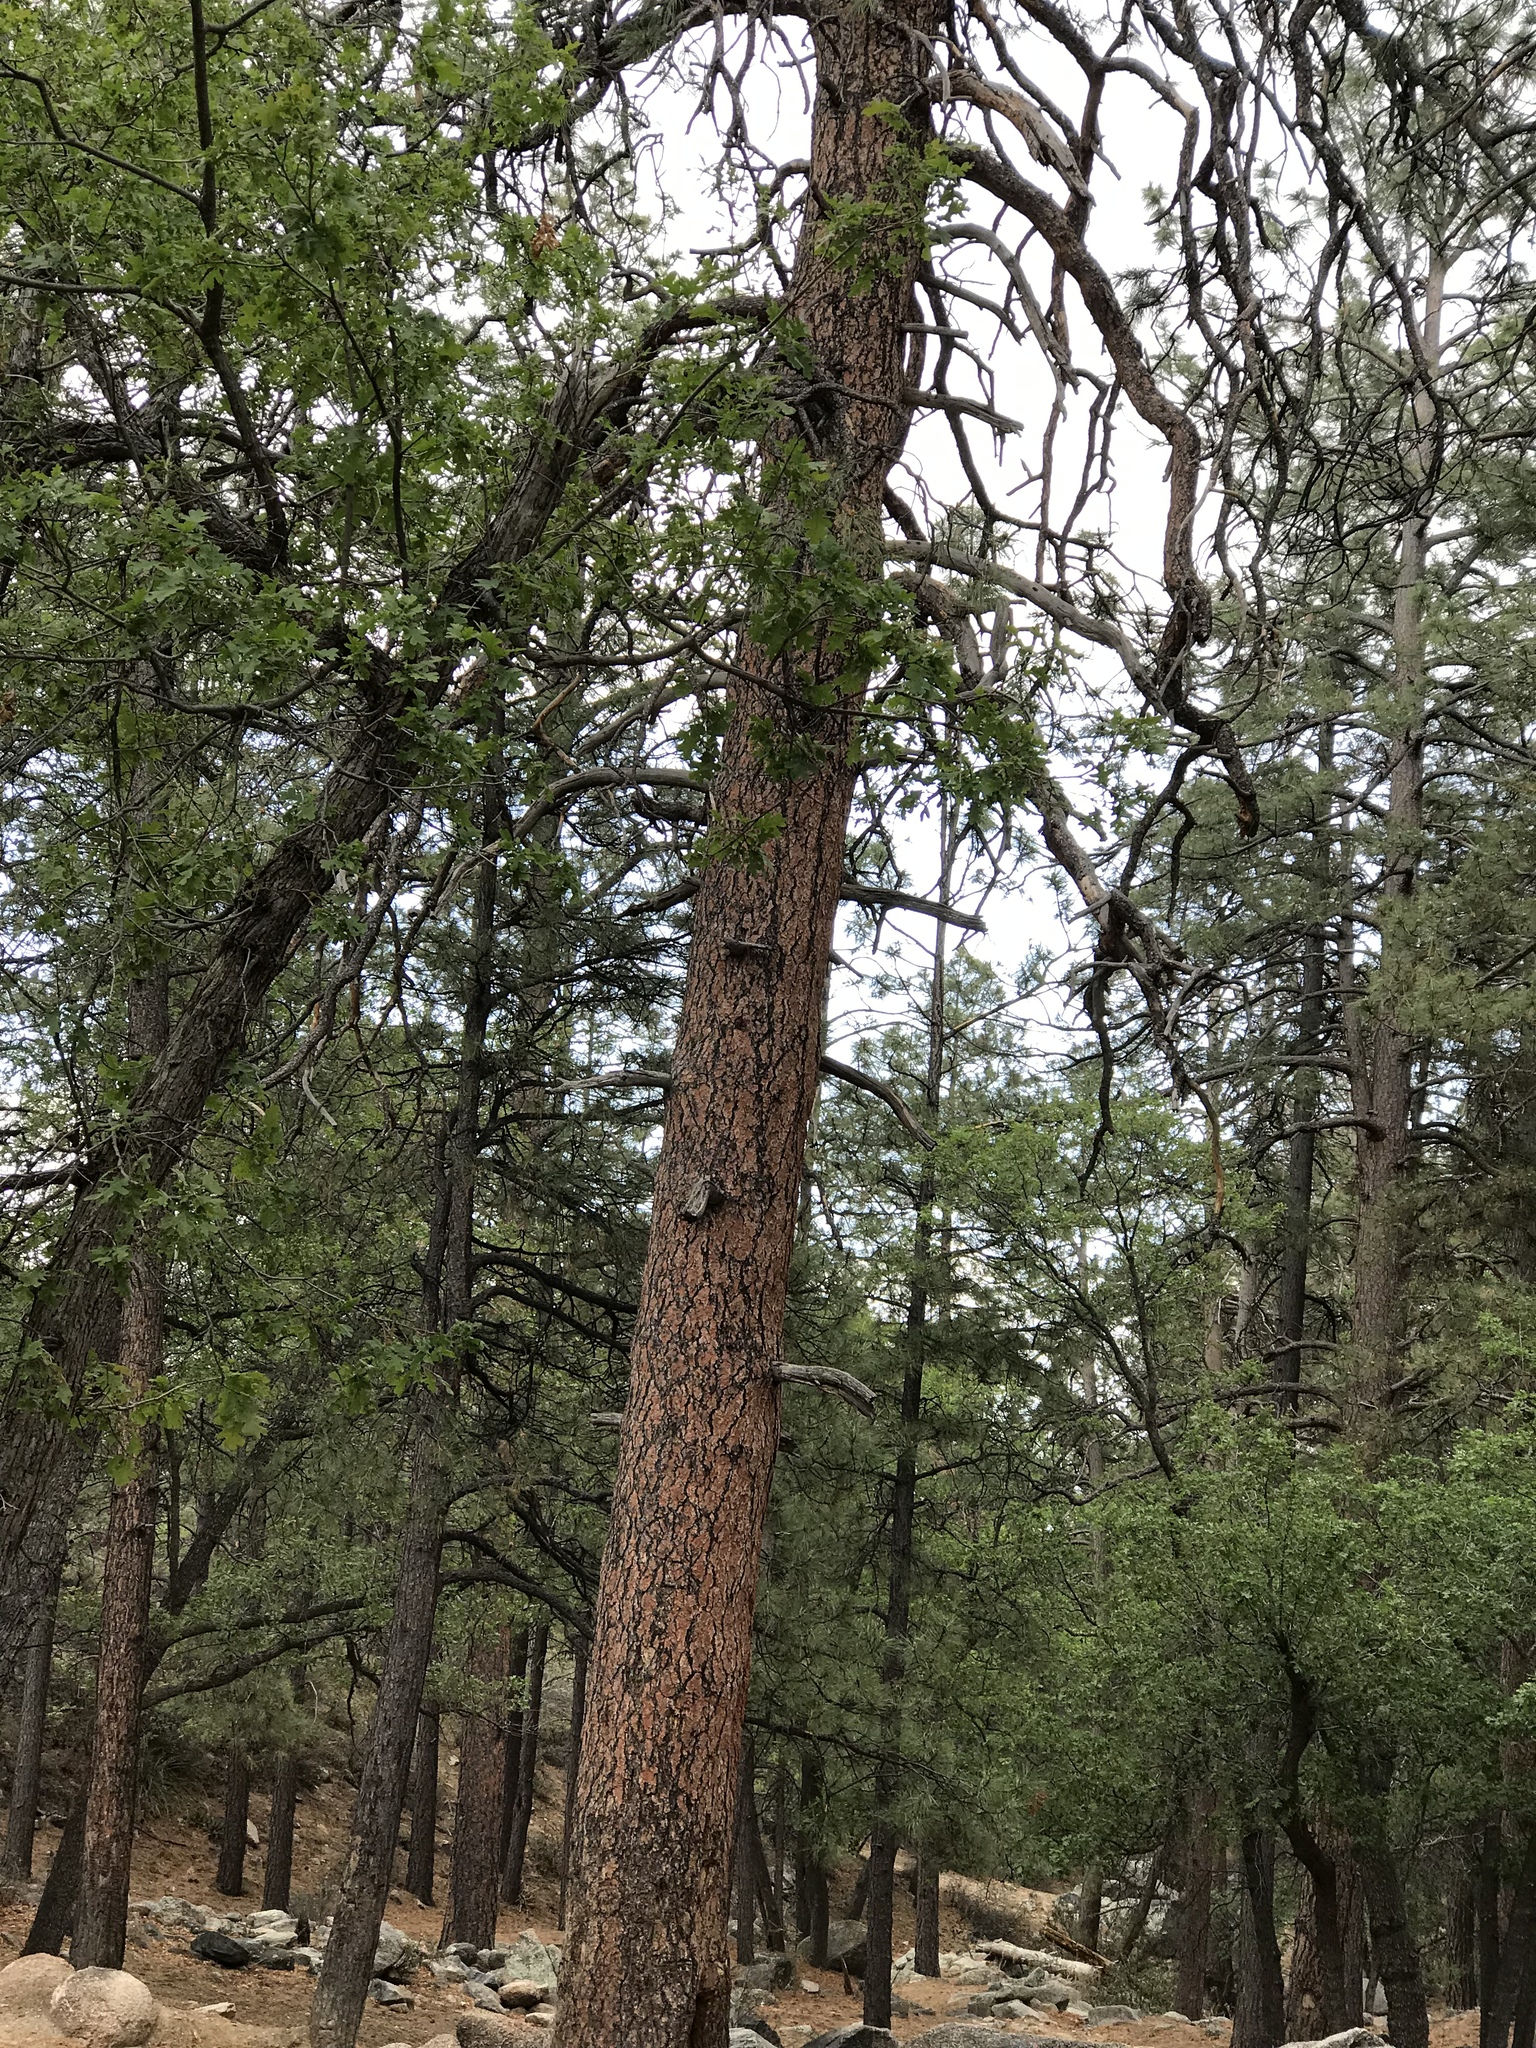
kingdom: Plantae
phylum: Tracheophyta
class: Pinopsida
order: Pinales
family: Pinaceae
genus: Pinus
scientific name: Pinus ponderosa
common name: Western yellow-pine
